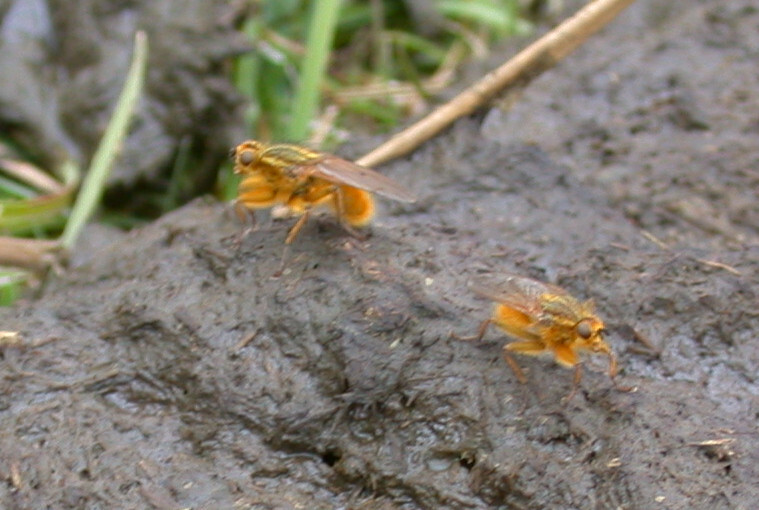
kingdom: Animalia
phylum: Arthropoda
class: Insecta
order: Diptera
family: Scathophagidae
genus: Scathophaga
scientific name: Scathophaga stercoraria
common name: Yellow dung fly
